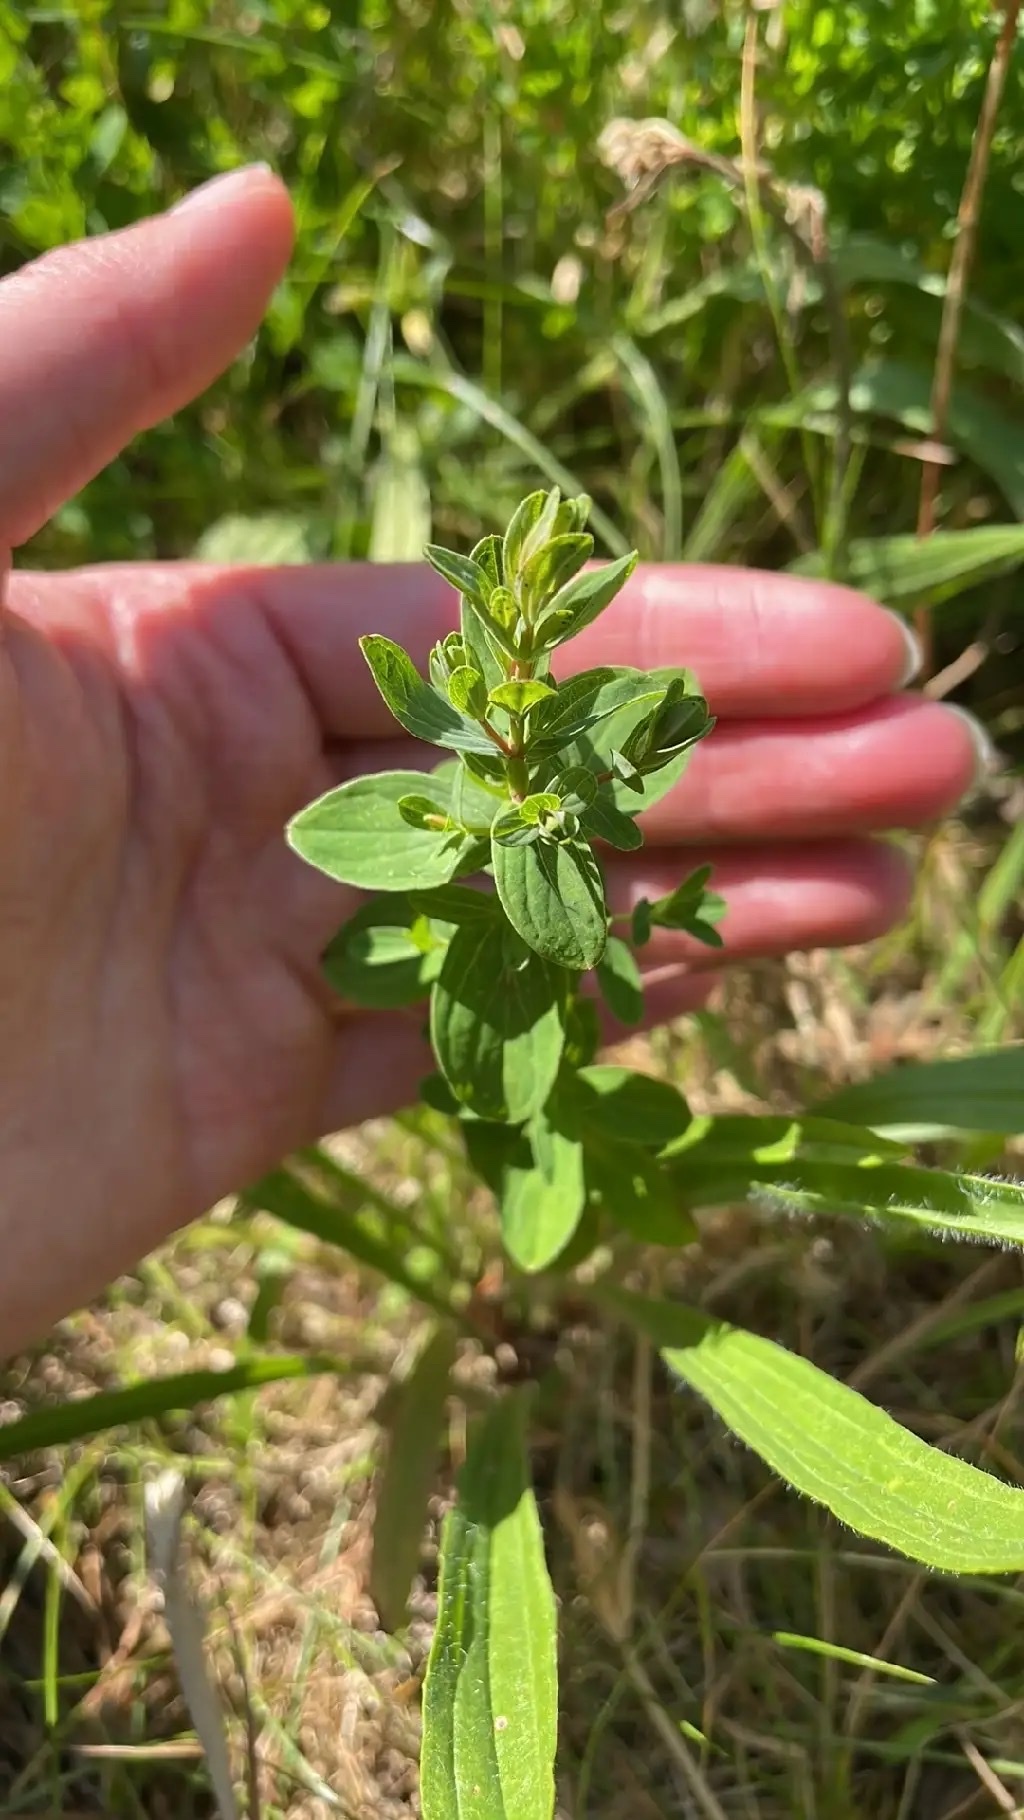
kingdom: Plantae
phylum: Tracheophyta
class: Magnoliopsida
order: Malpighiales
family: Hypericaceae
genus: Hypericum
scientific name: Hypericum perforatum
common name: Common st. johnswort
